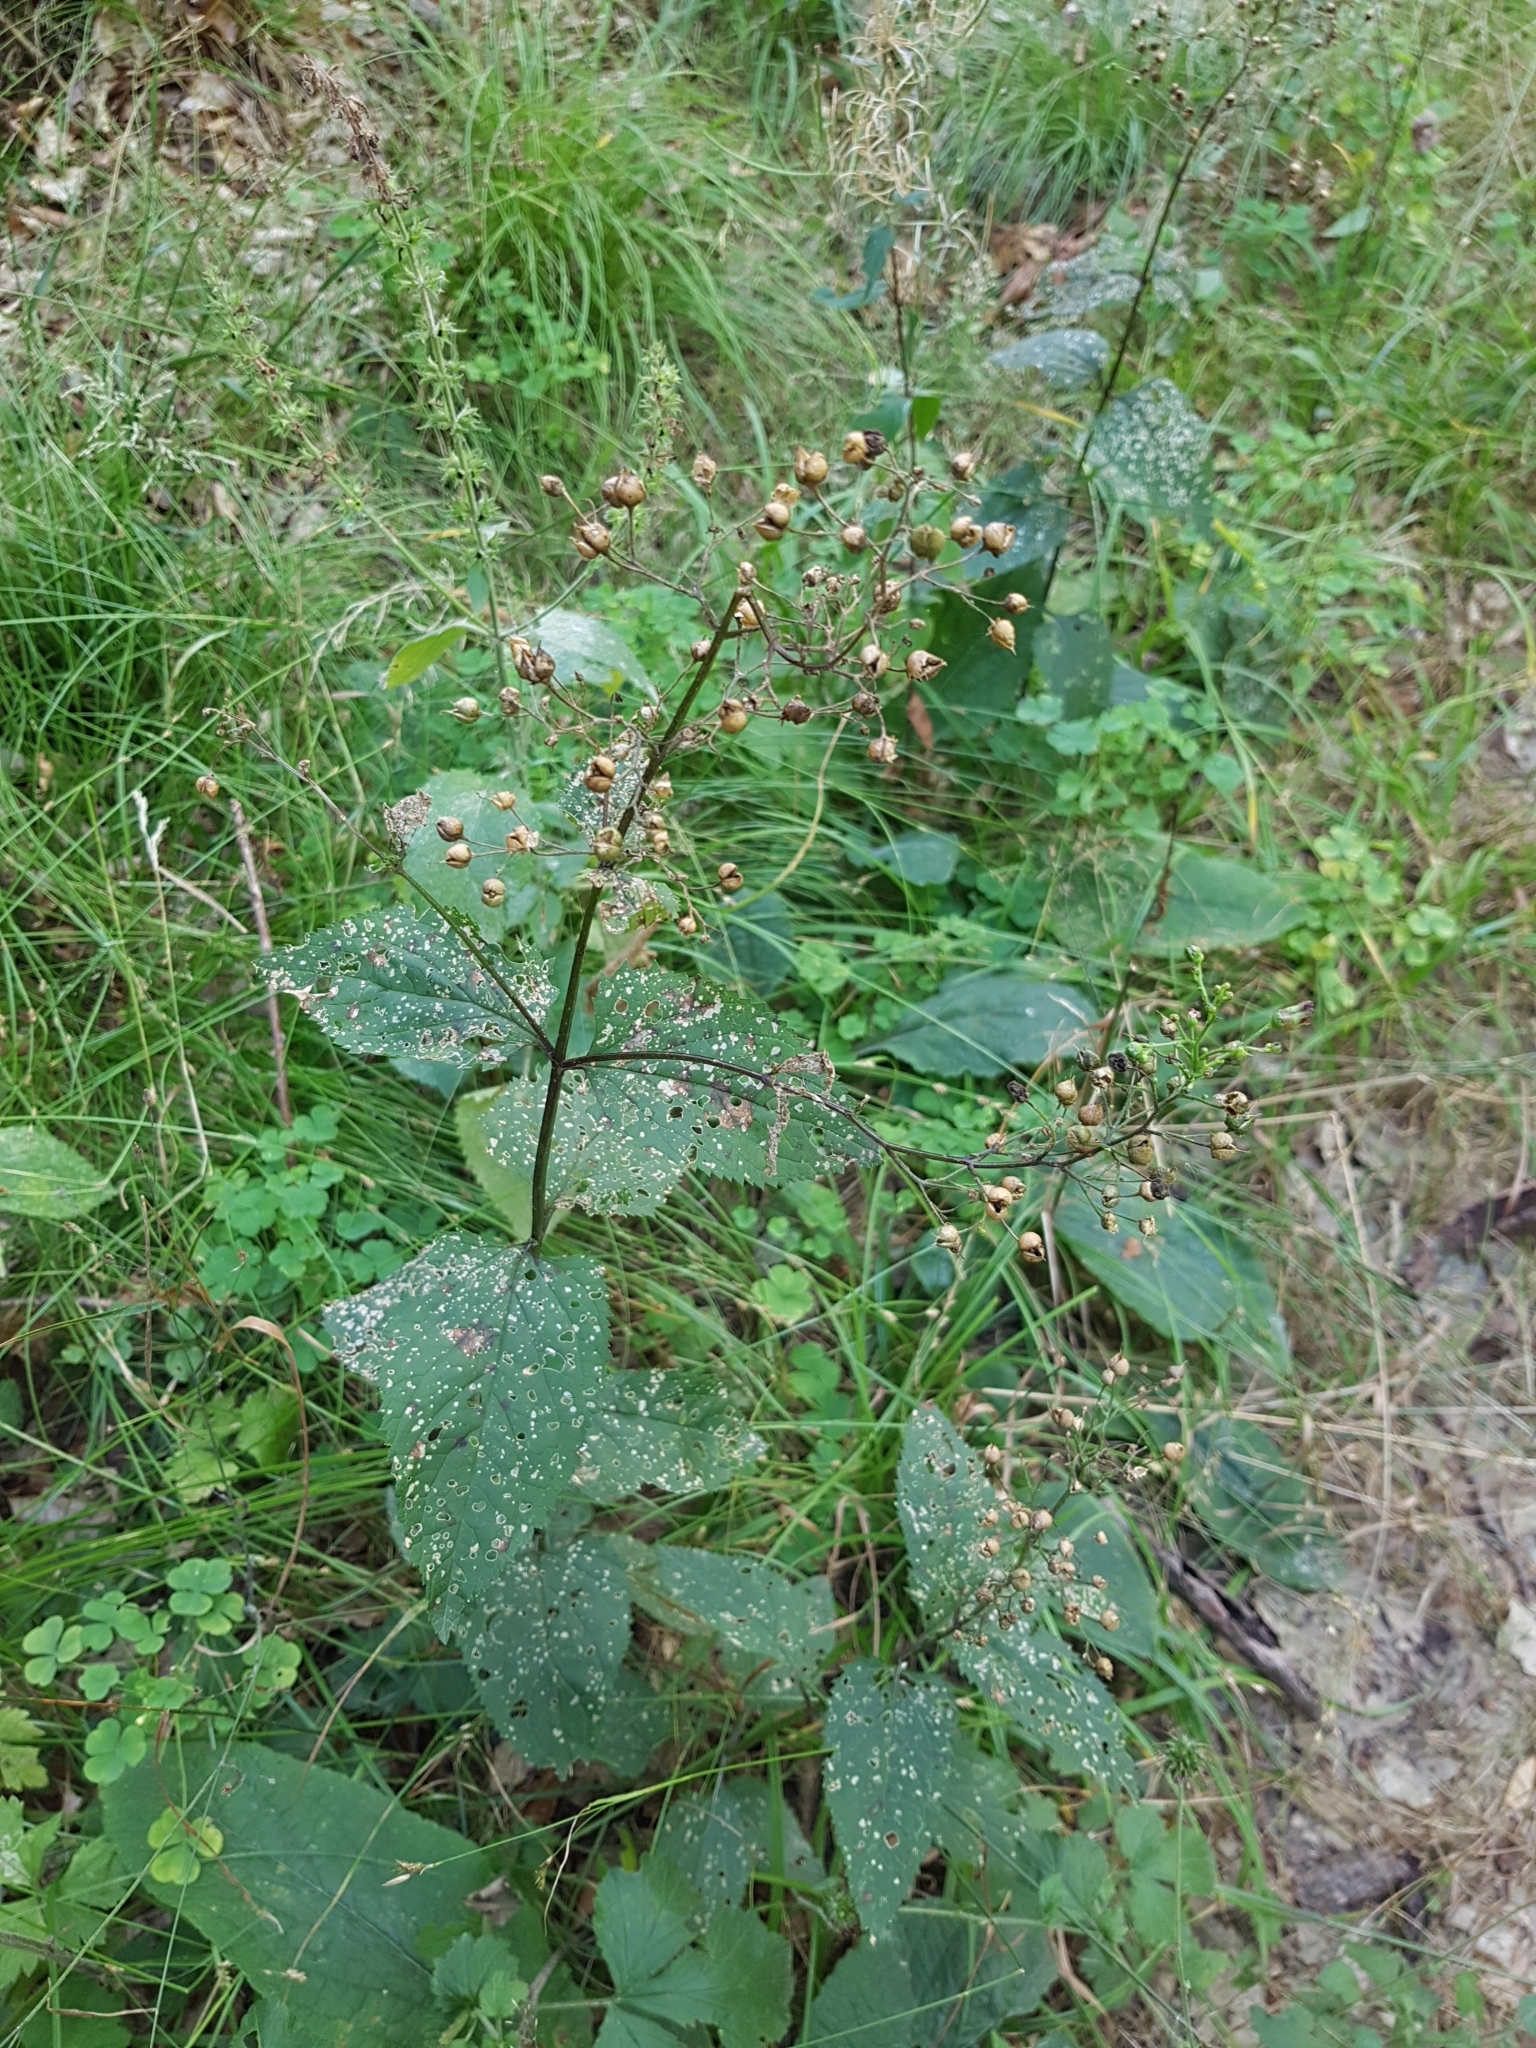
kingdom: Plantae
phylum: Tracheophyta
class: Magnoliopsida
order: Lamiales
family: Scrophulariaceae
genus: Scrophularia
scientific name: Scrophularia nodosa
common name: Common figwort
